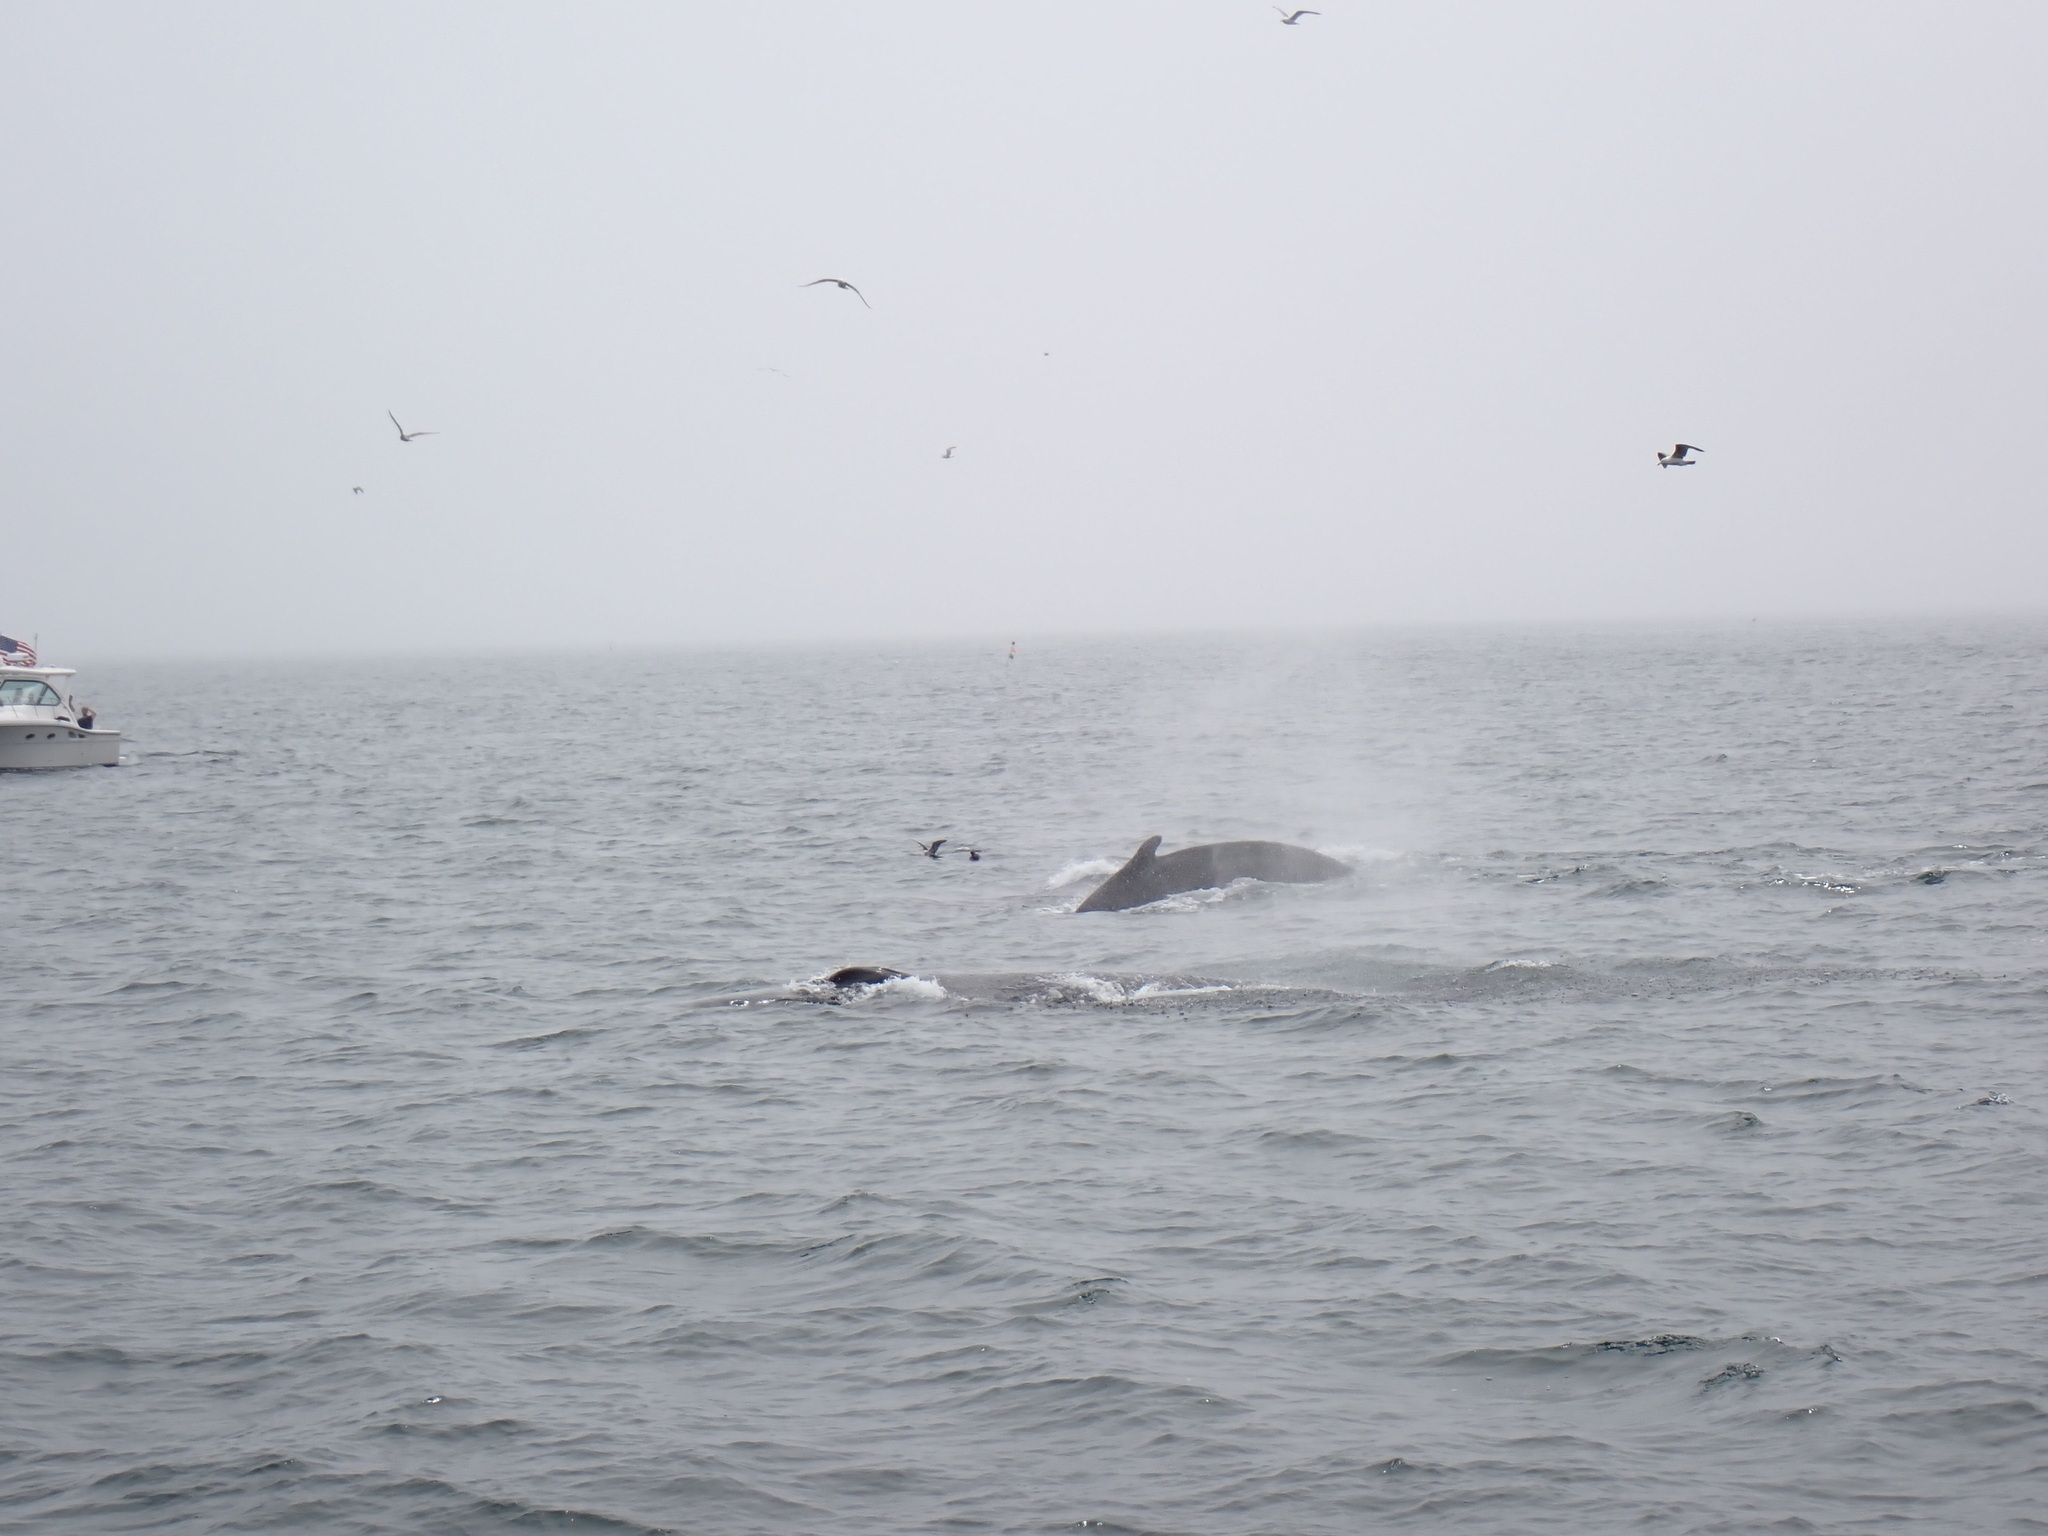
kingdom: Animalia
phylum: Chordata
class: Mammalia
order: Cetacea
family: Balaenopteridae
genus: Megaptera
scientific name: Megaptera novaeangliae
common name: Humpback whale
